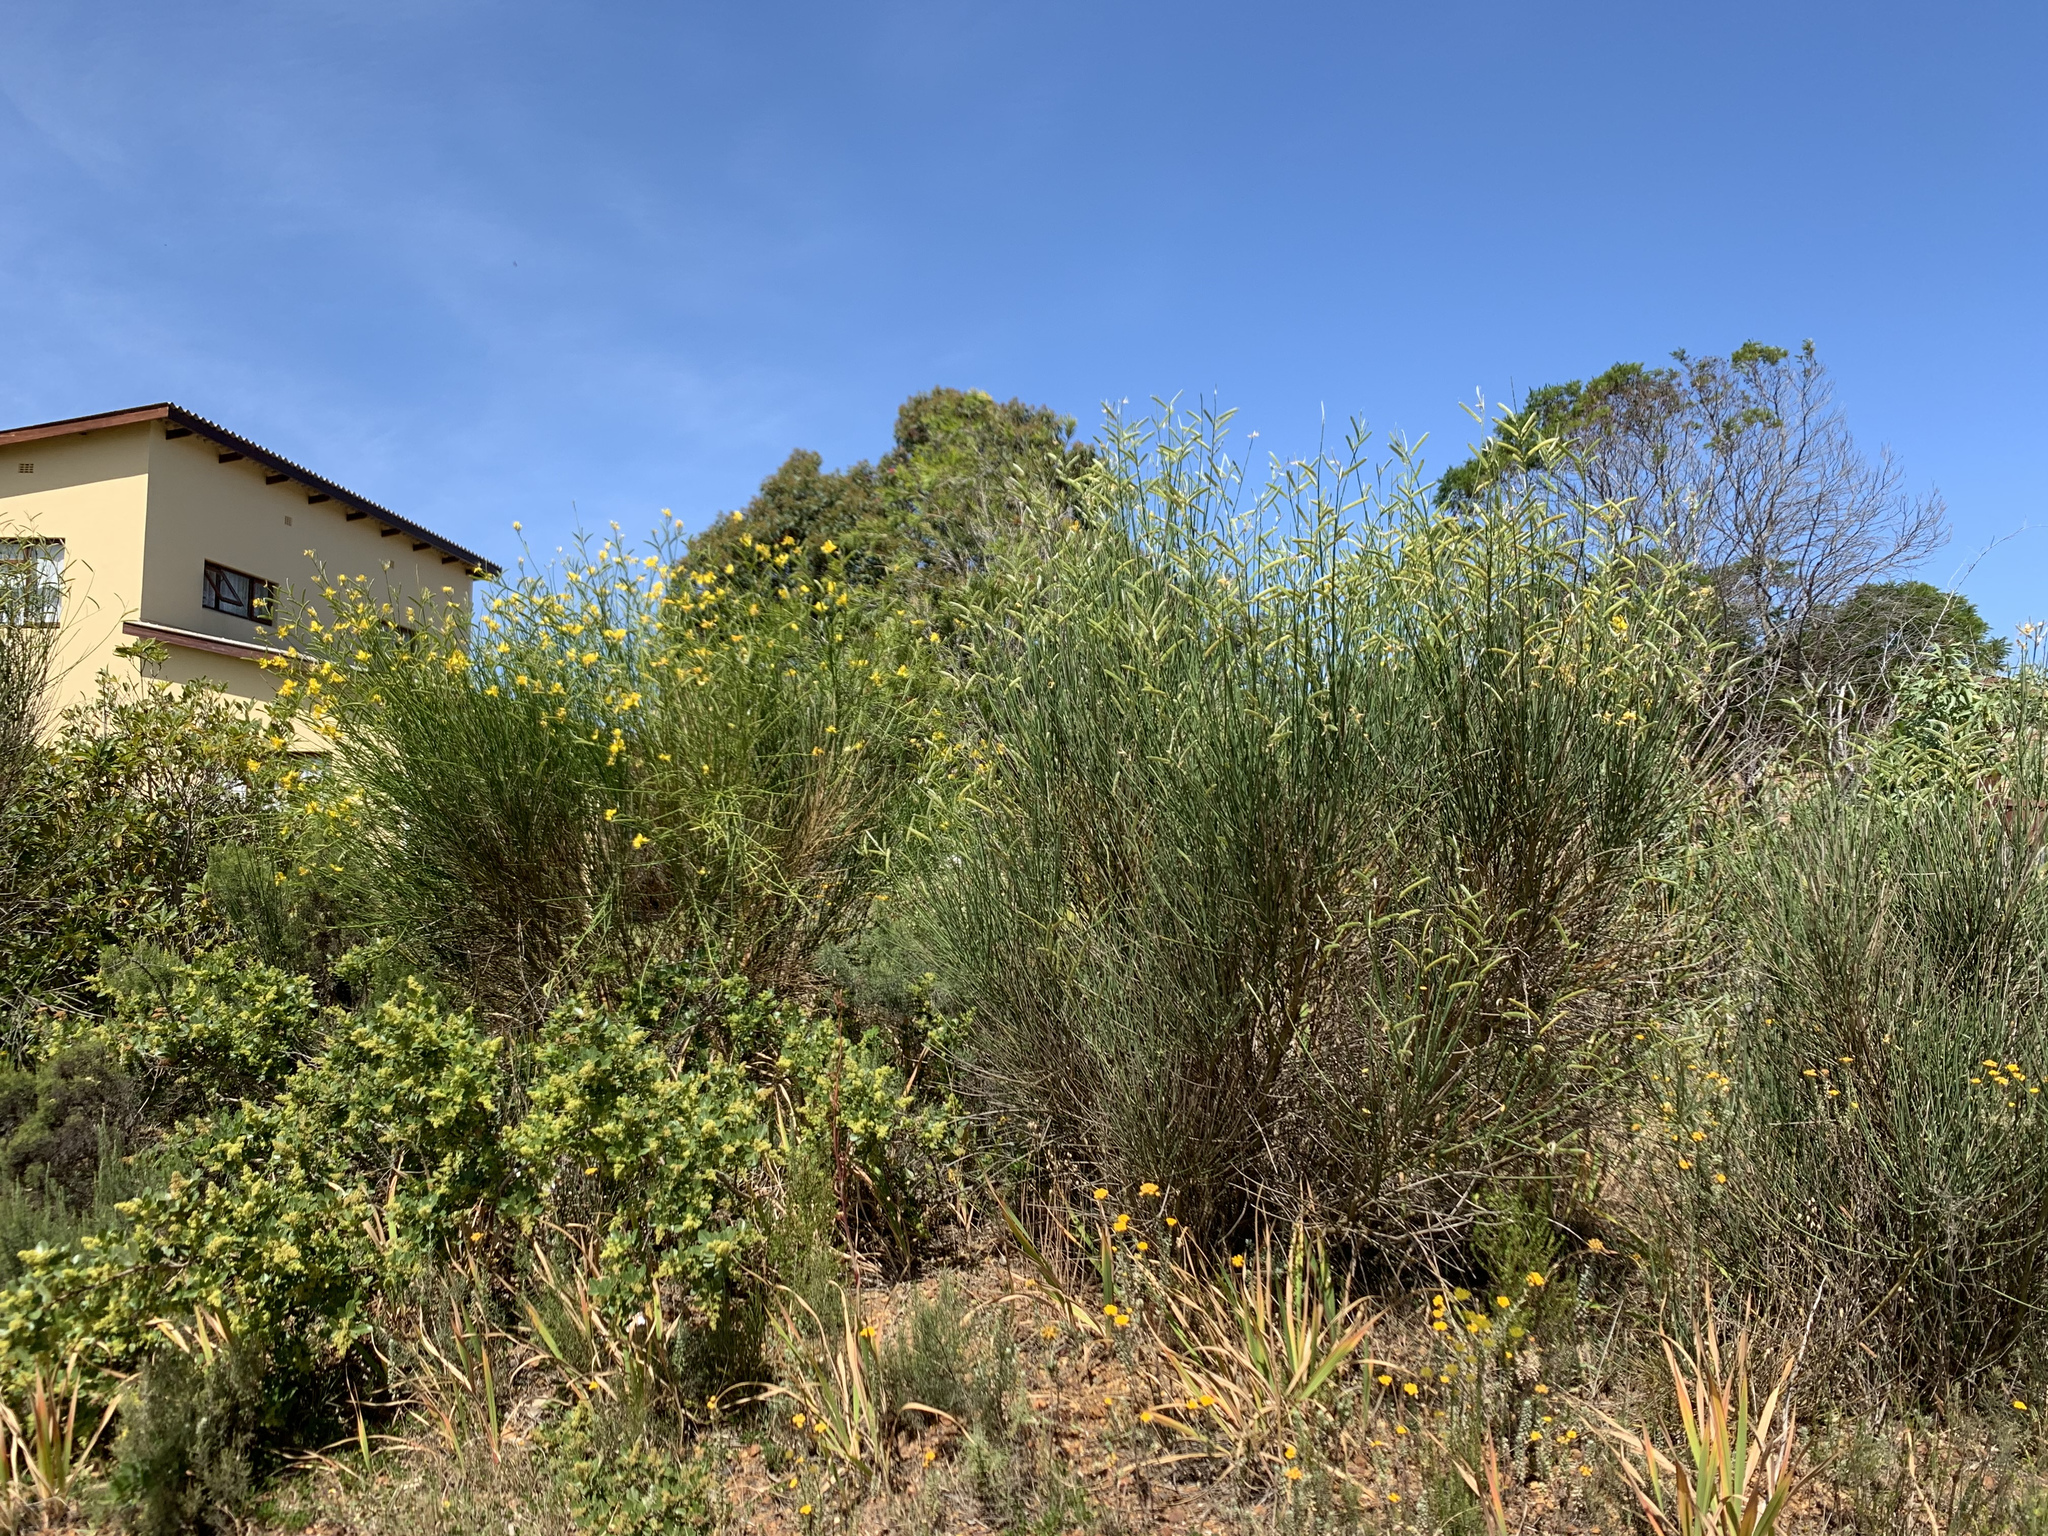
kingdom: Plantae
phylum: Tracheophyta
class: Magnoliopsida
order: Fabales
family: Fabaceae
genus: Spartium
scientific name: Spartium junceum
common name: Spanish broom
